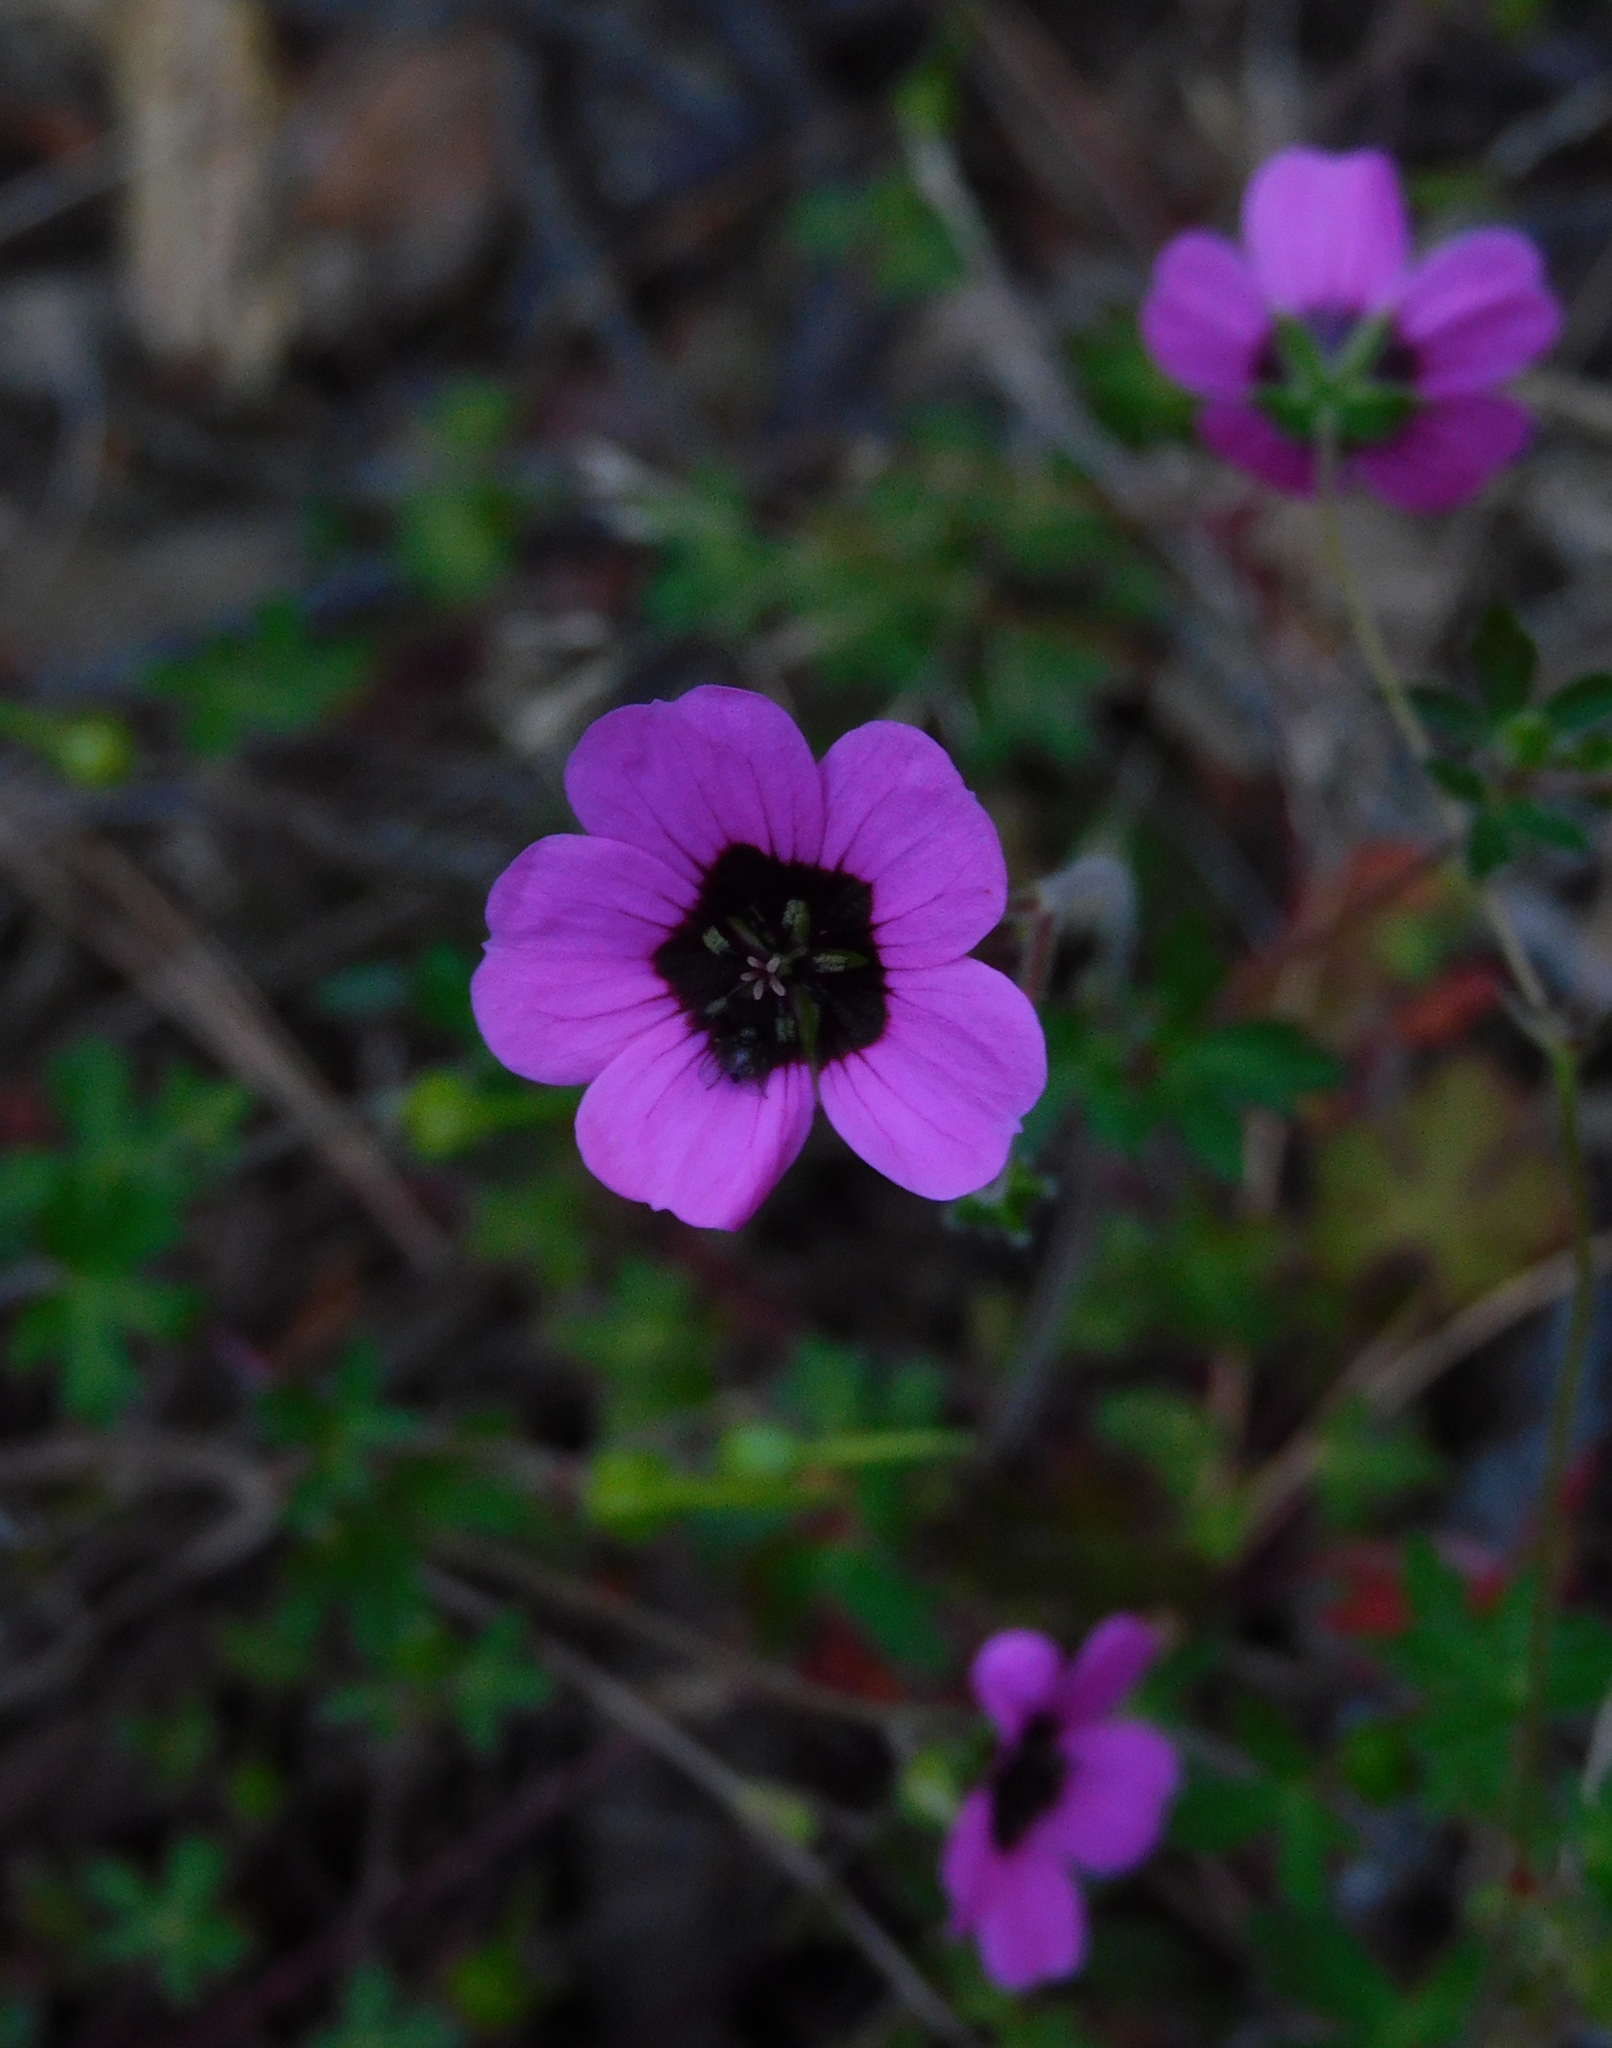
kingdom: Plantae
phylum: Tracheophyta
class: Magnoliopsida
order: Geraniales
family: Geraniaceae
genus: Geranium
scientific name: Geranium ocellatum
